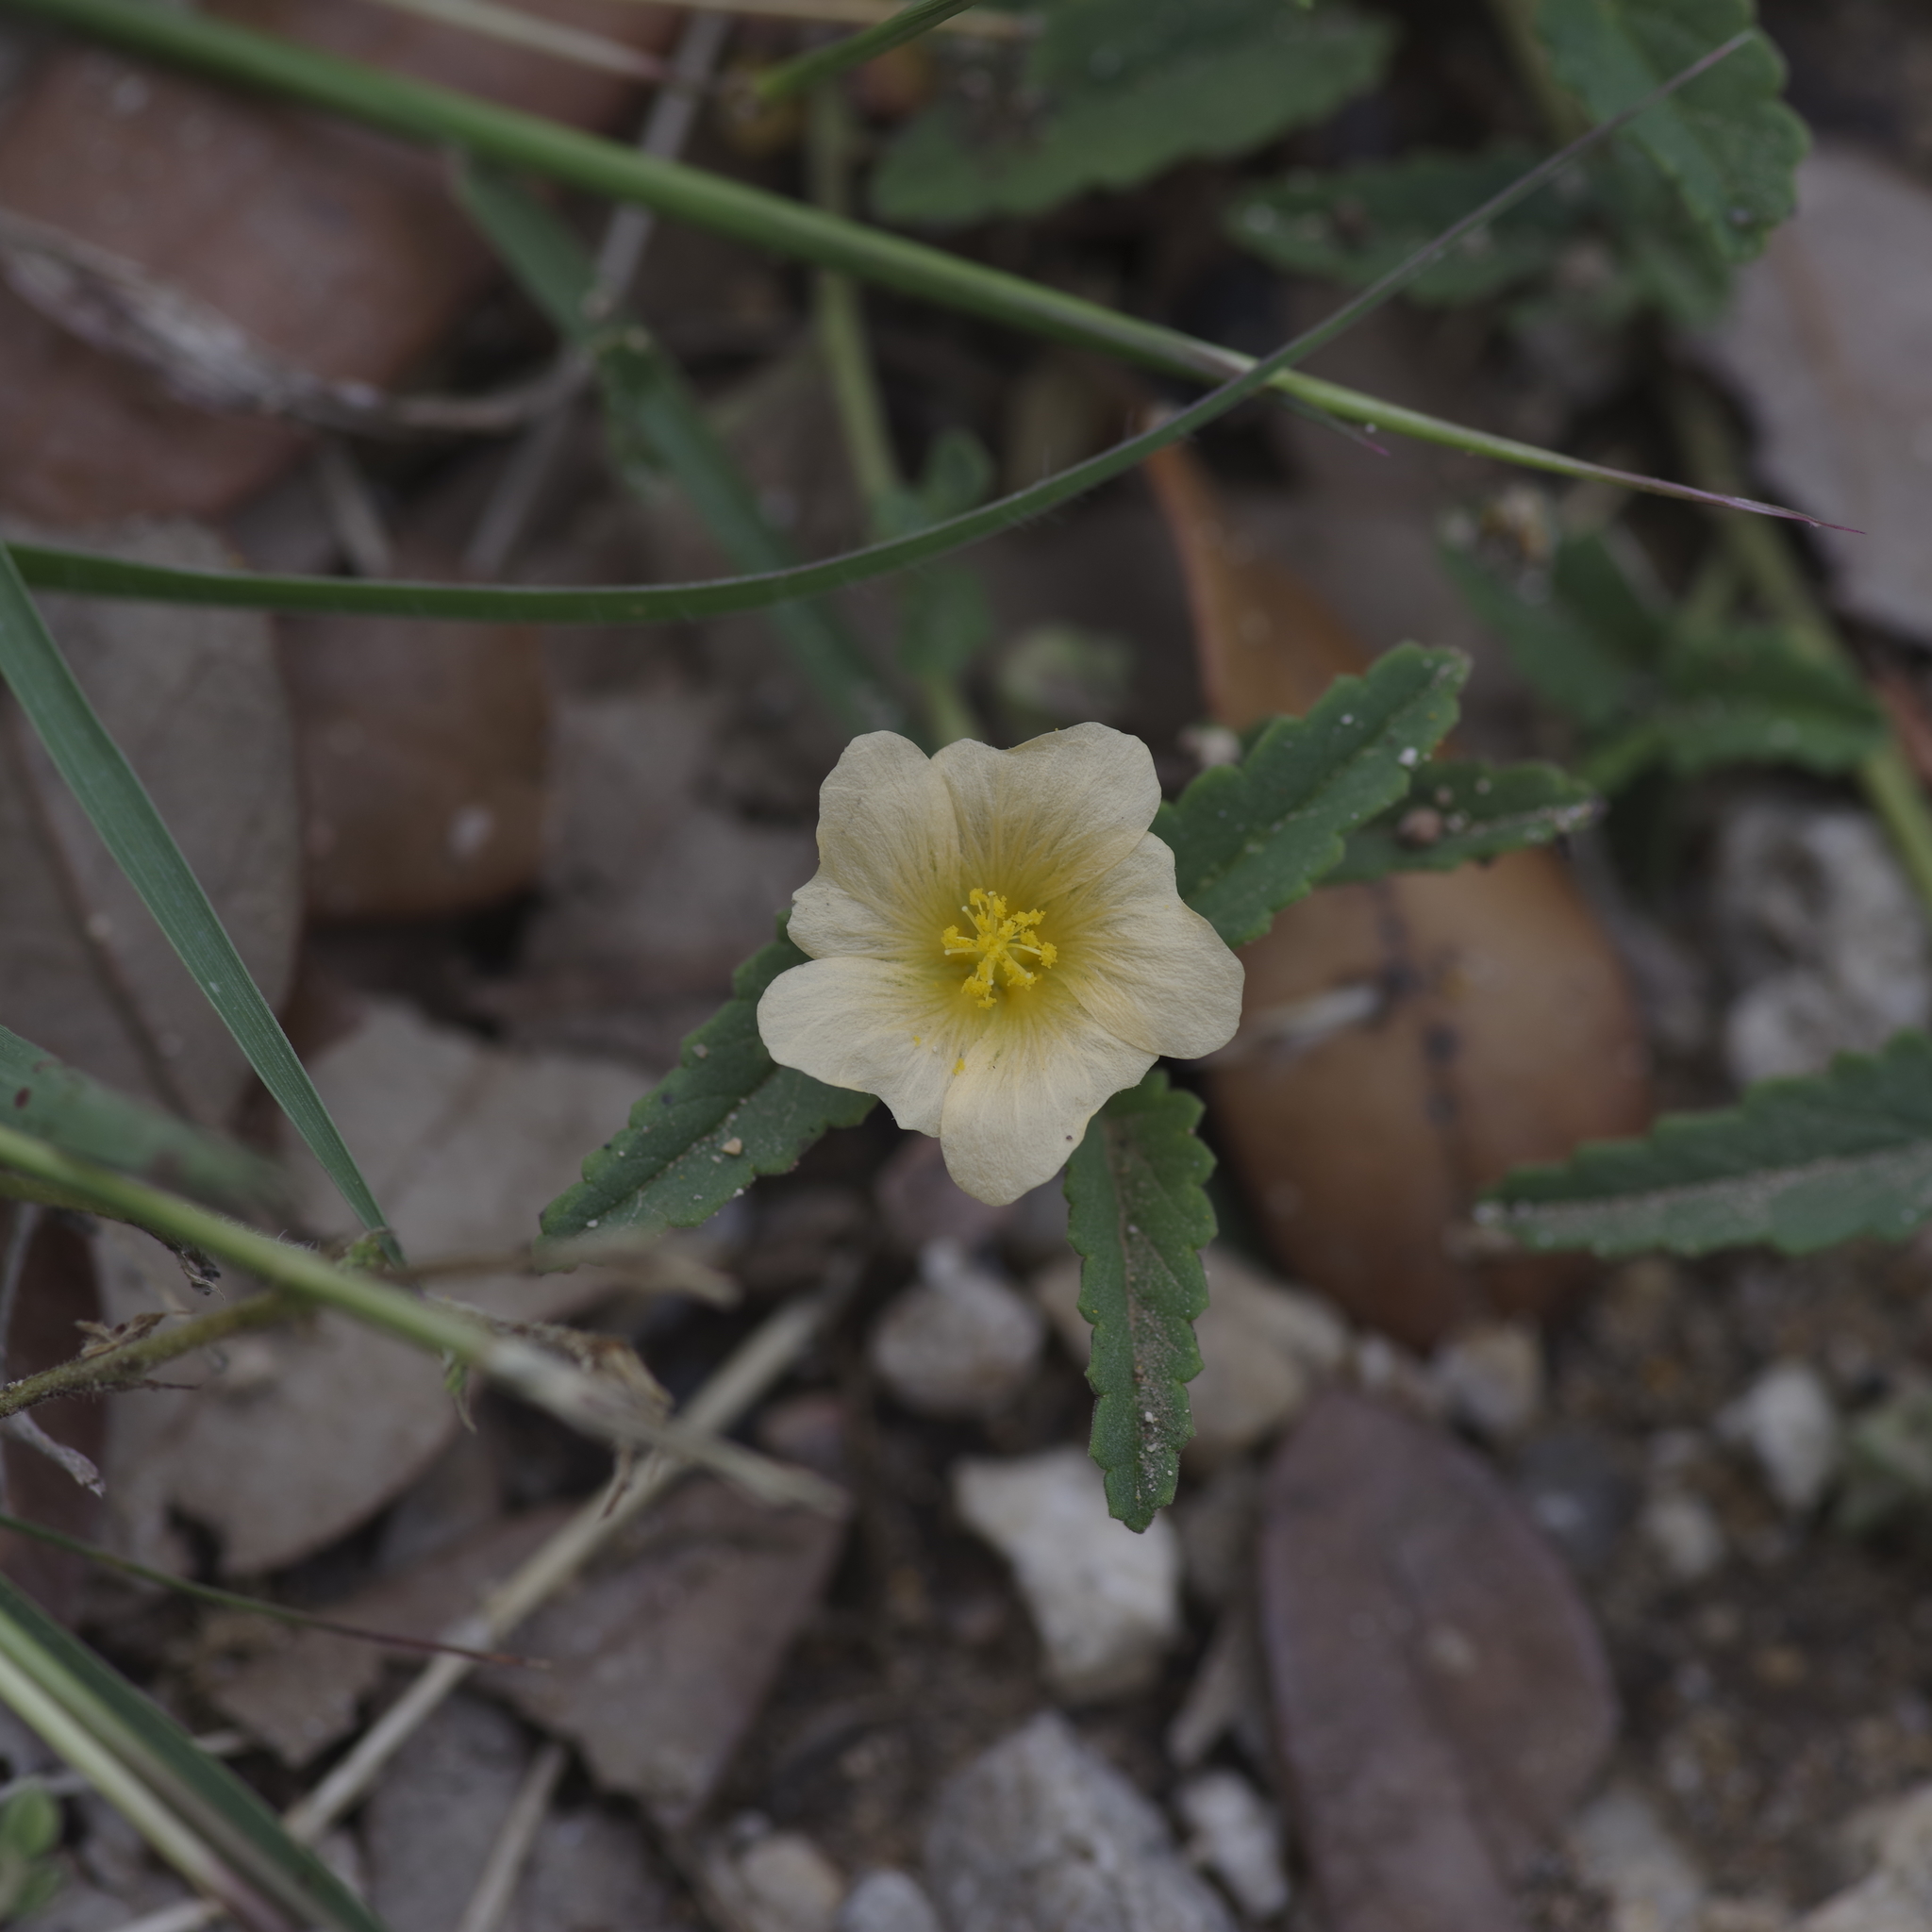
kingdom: Plantae
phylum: Tracheophyta
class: Magnoliopsida
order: Malvales
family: Malvaceae
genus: Sida
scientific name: Sida abutilifolia
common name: Spreading fanpetals
